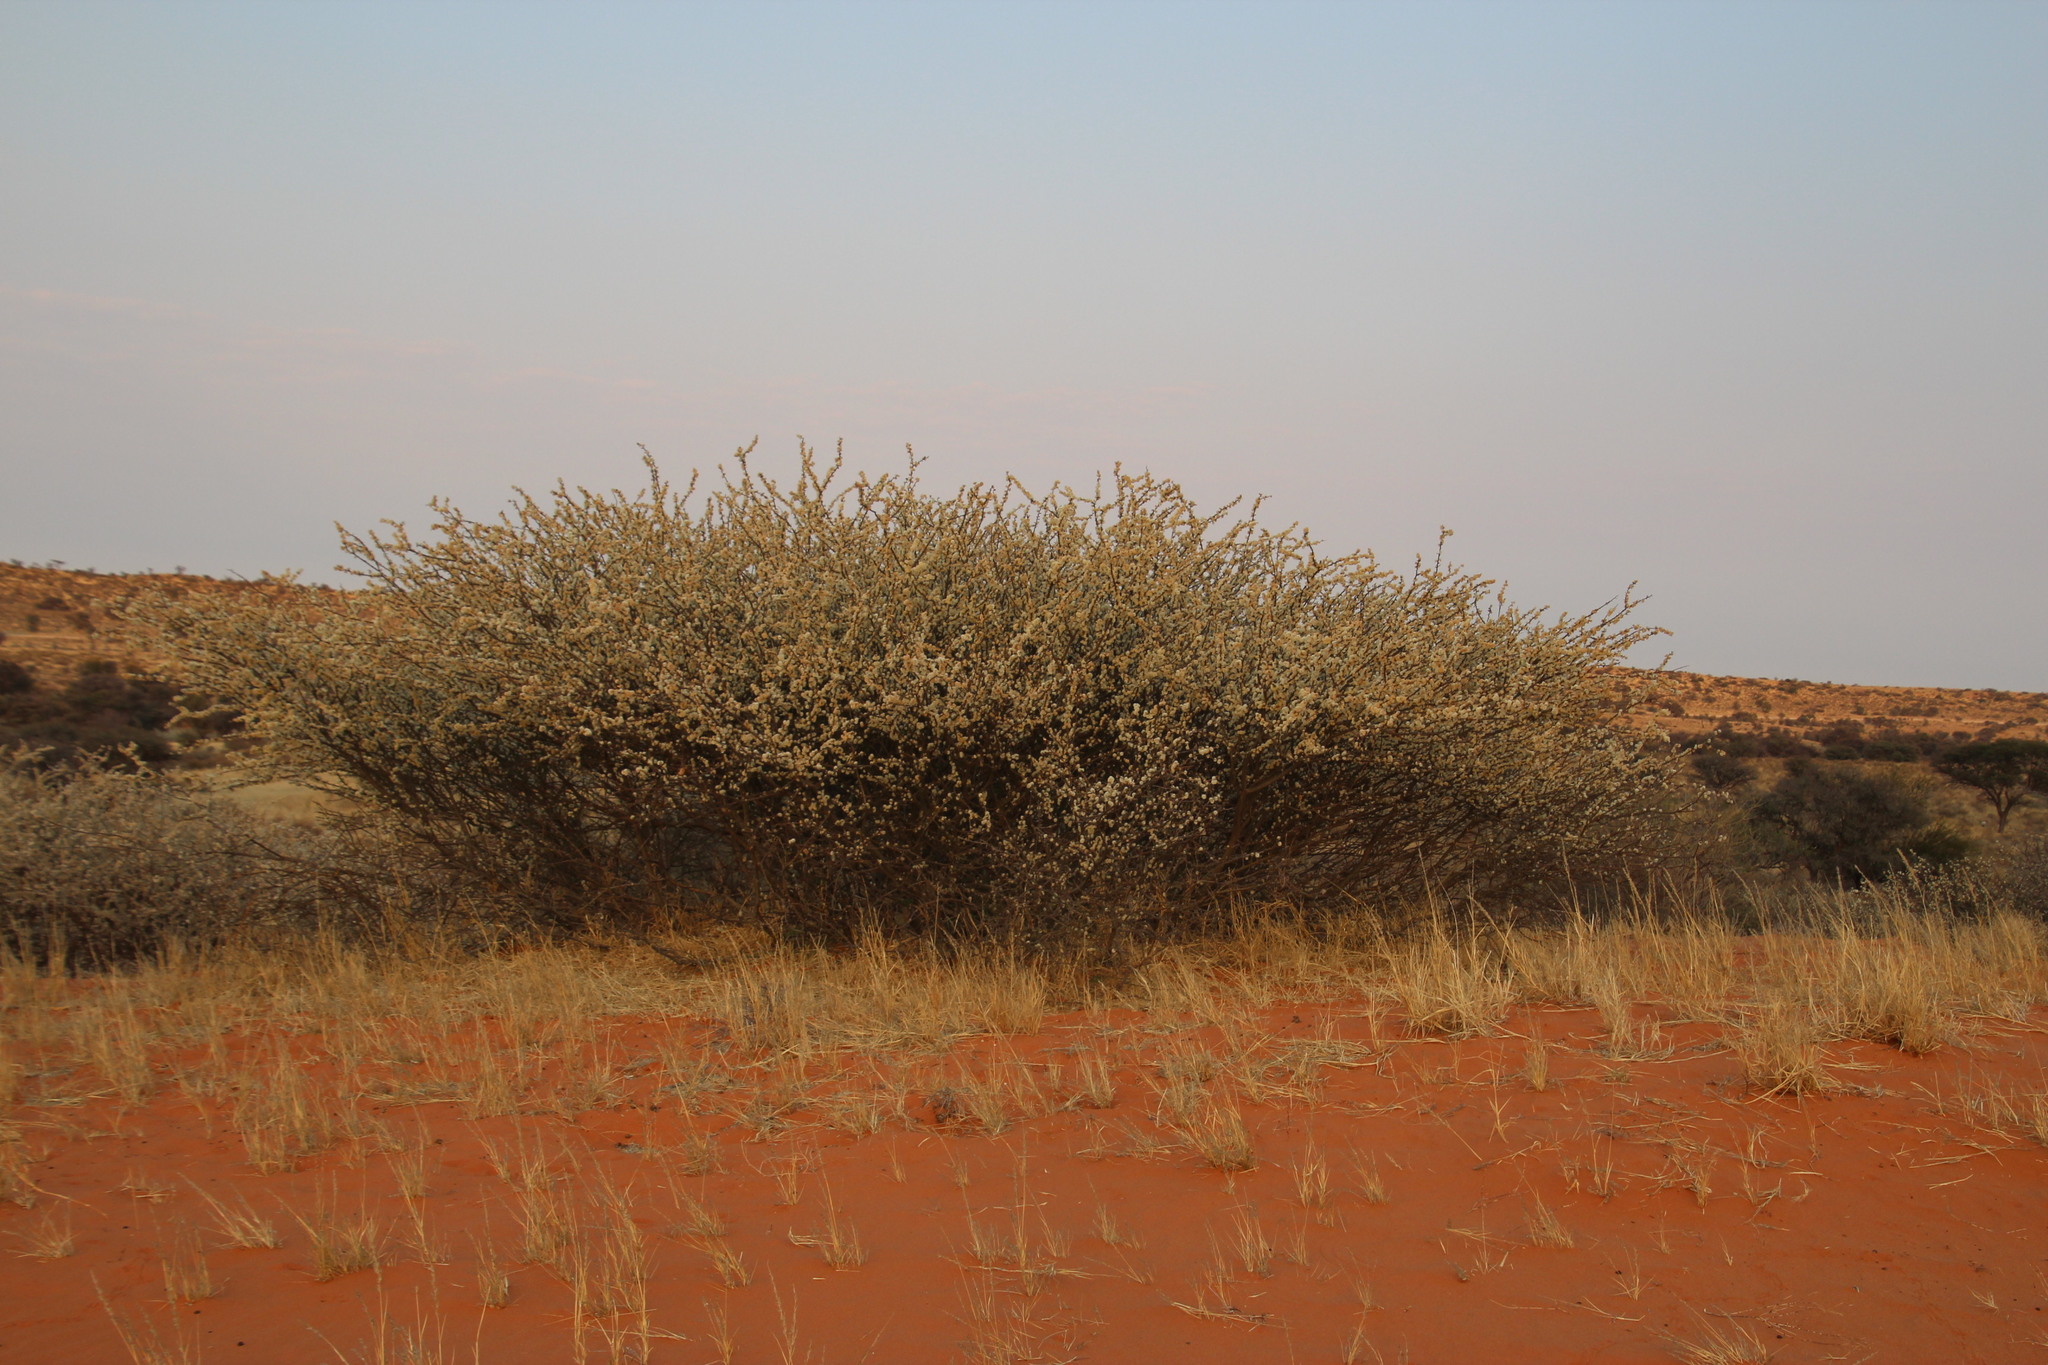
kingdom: Plantae
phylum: Tracheophyta
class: Magnoliopsida
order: Fabales
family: Fabaceae
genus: Senegalia
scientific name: Senegalia mellifera
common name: Hookthorn
